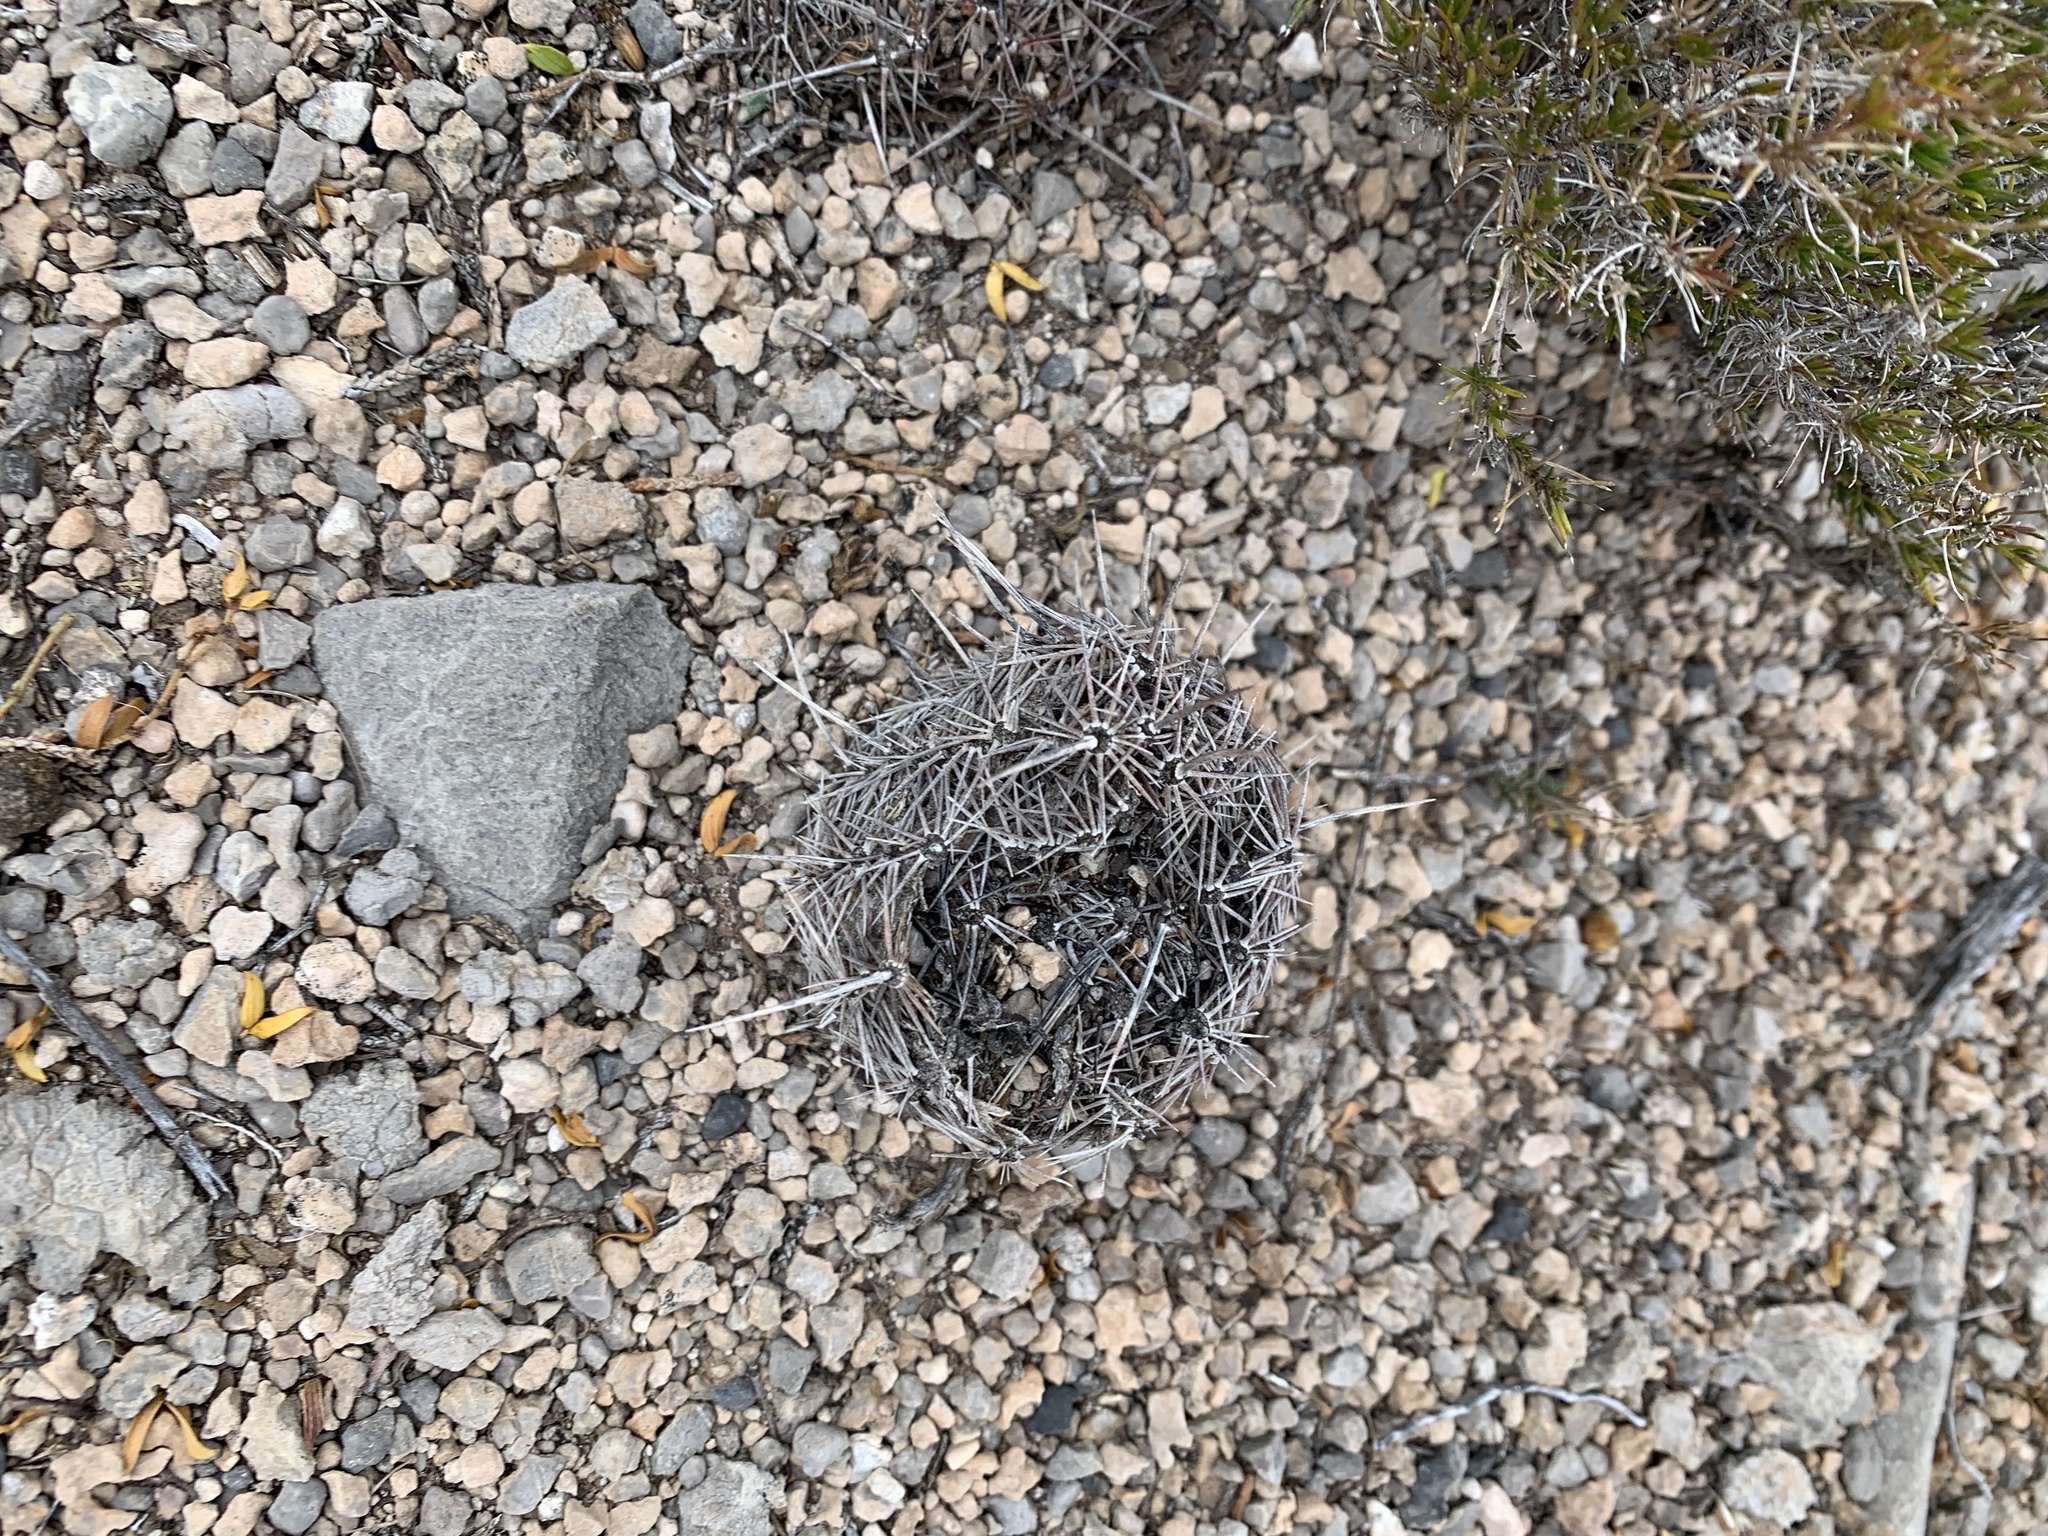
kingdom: Plantae
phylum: Tracheophyta
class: Magnoliopsida
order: Caryophyllales
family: Cactaceae
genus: Echinocereus
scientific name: Echinocereus
